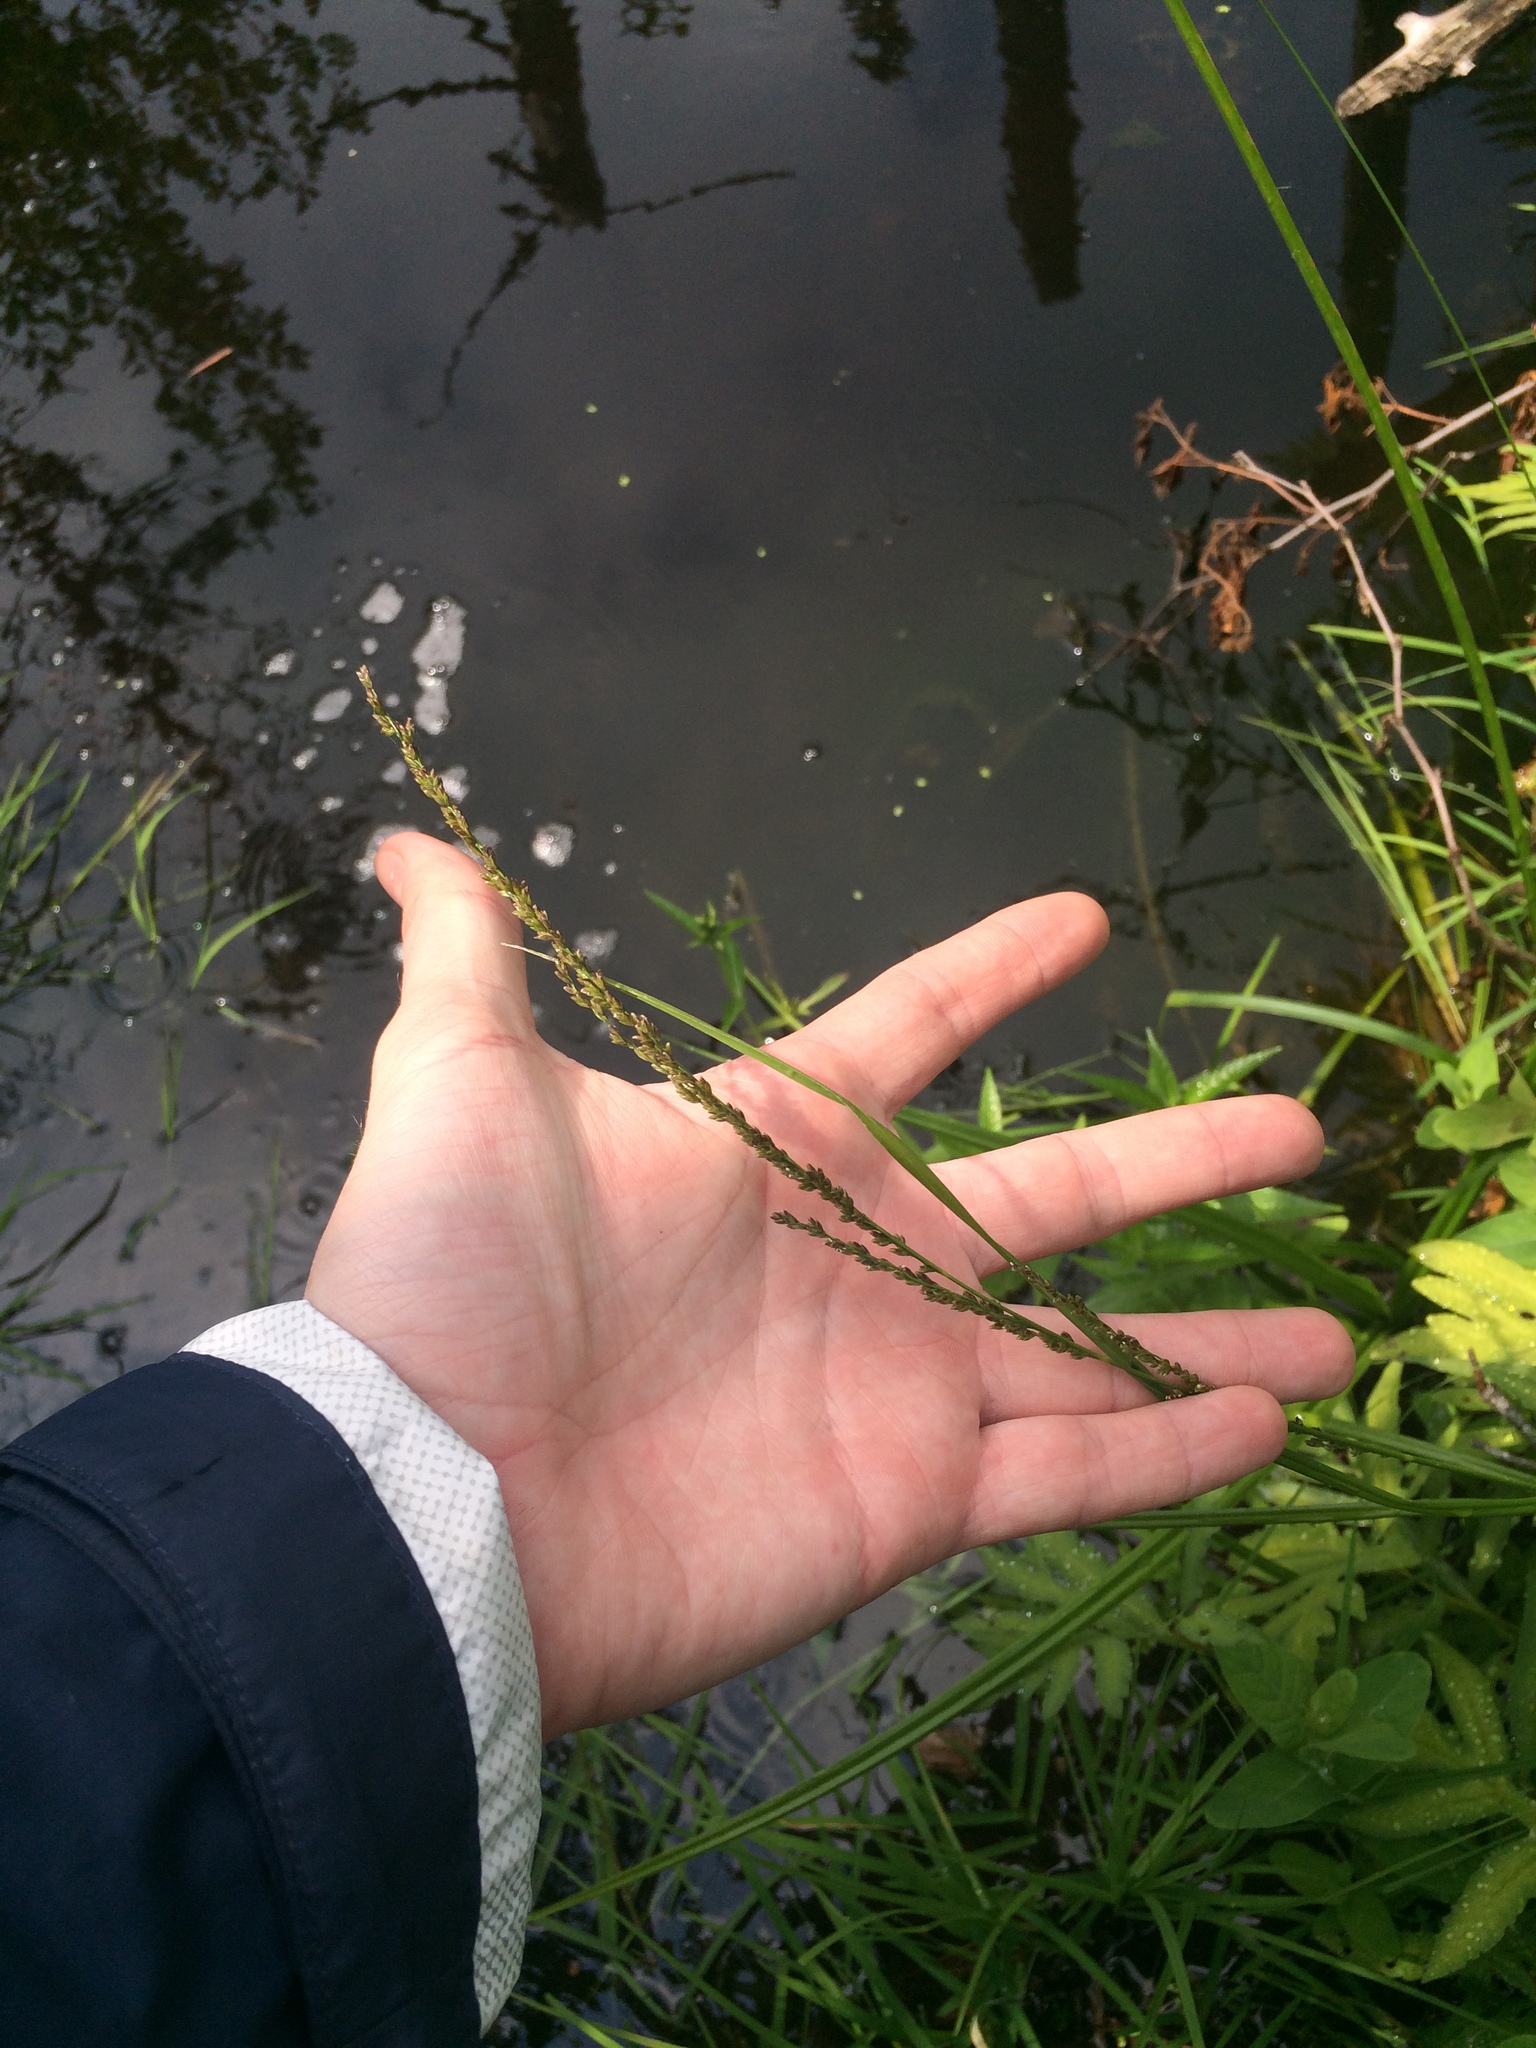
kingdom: Plantae
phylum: Tracheophyta
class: Liliopsida
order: Poales
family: Poaceae
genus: Glyceria
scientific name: Glyceria melicaria
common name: Long mannagrass
